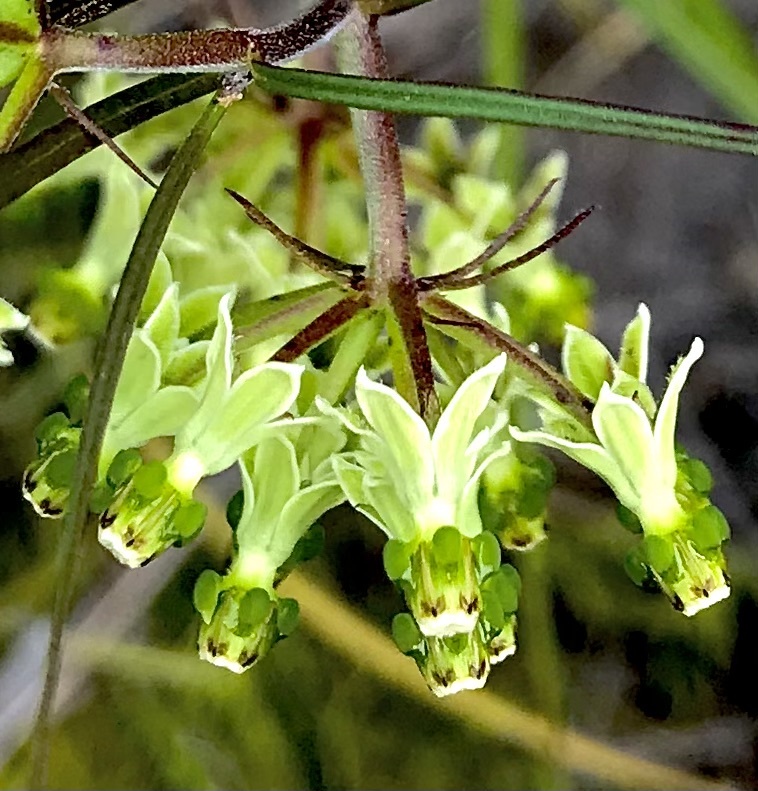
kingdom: Plantae
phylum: Tracheophyta
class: Magnoliopsida
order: Gentianales
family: Apocynaceae
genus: Xysmalobium
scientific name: Xysmalobium zeyheri
